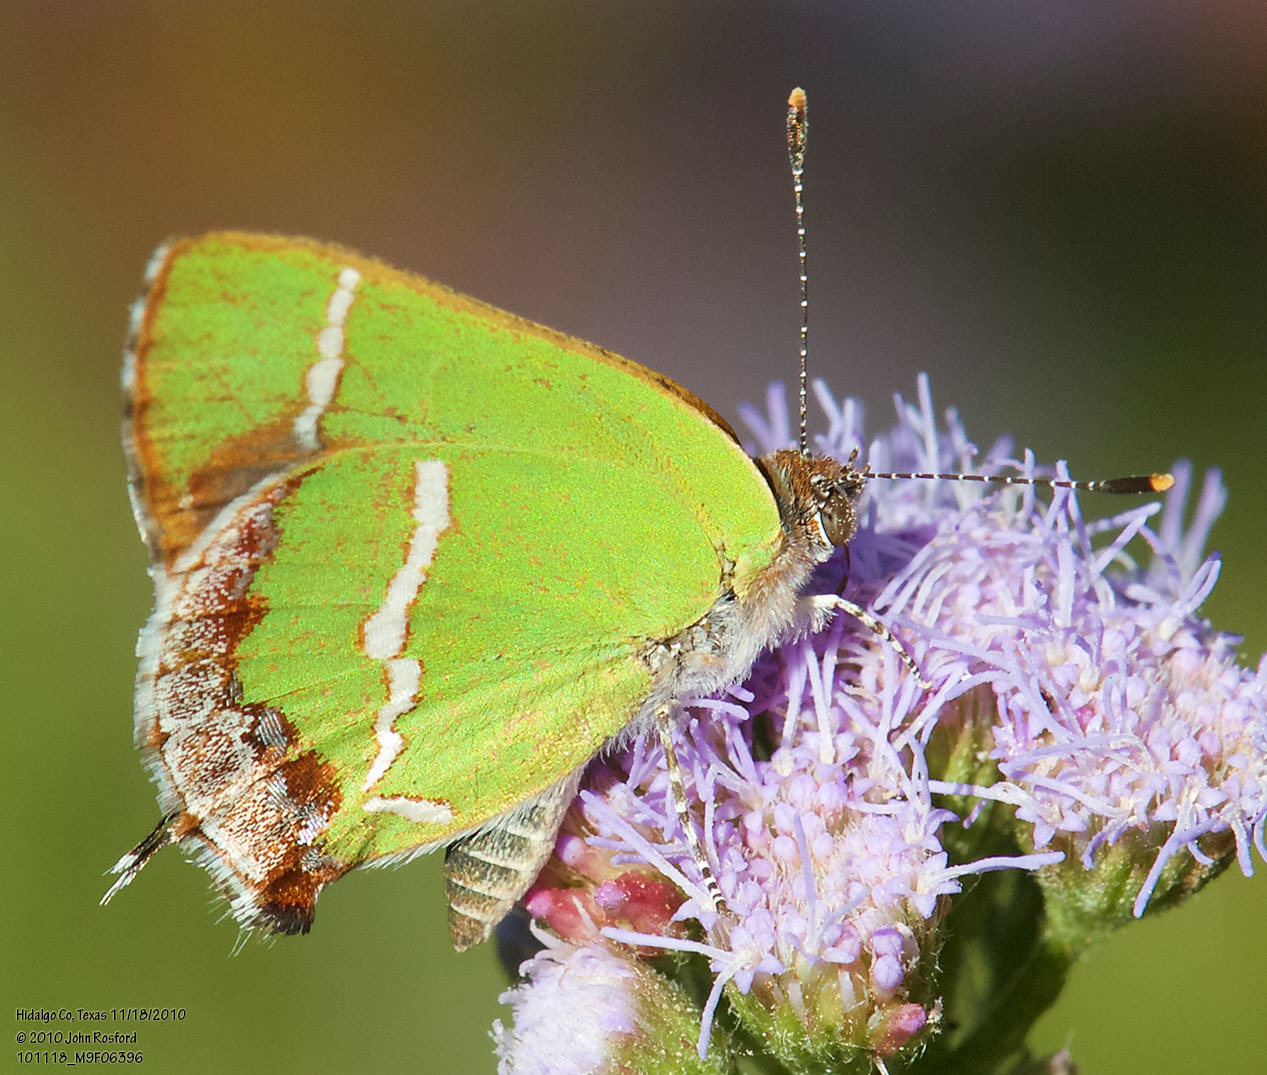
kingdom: Animalia
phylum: Arthropoda
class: Insecta
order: Lepidoptera
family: Lycaenidae
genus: Chlorostrymon
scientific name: Chlorostrymon simaethis
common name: Silver-banded hairstreak
